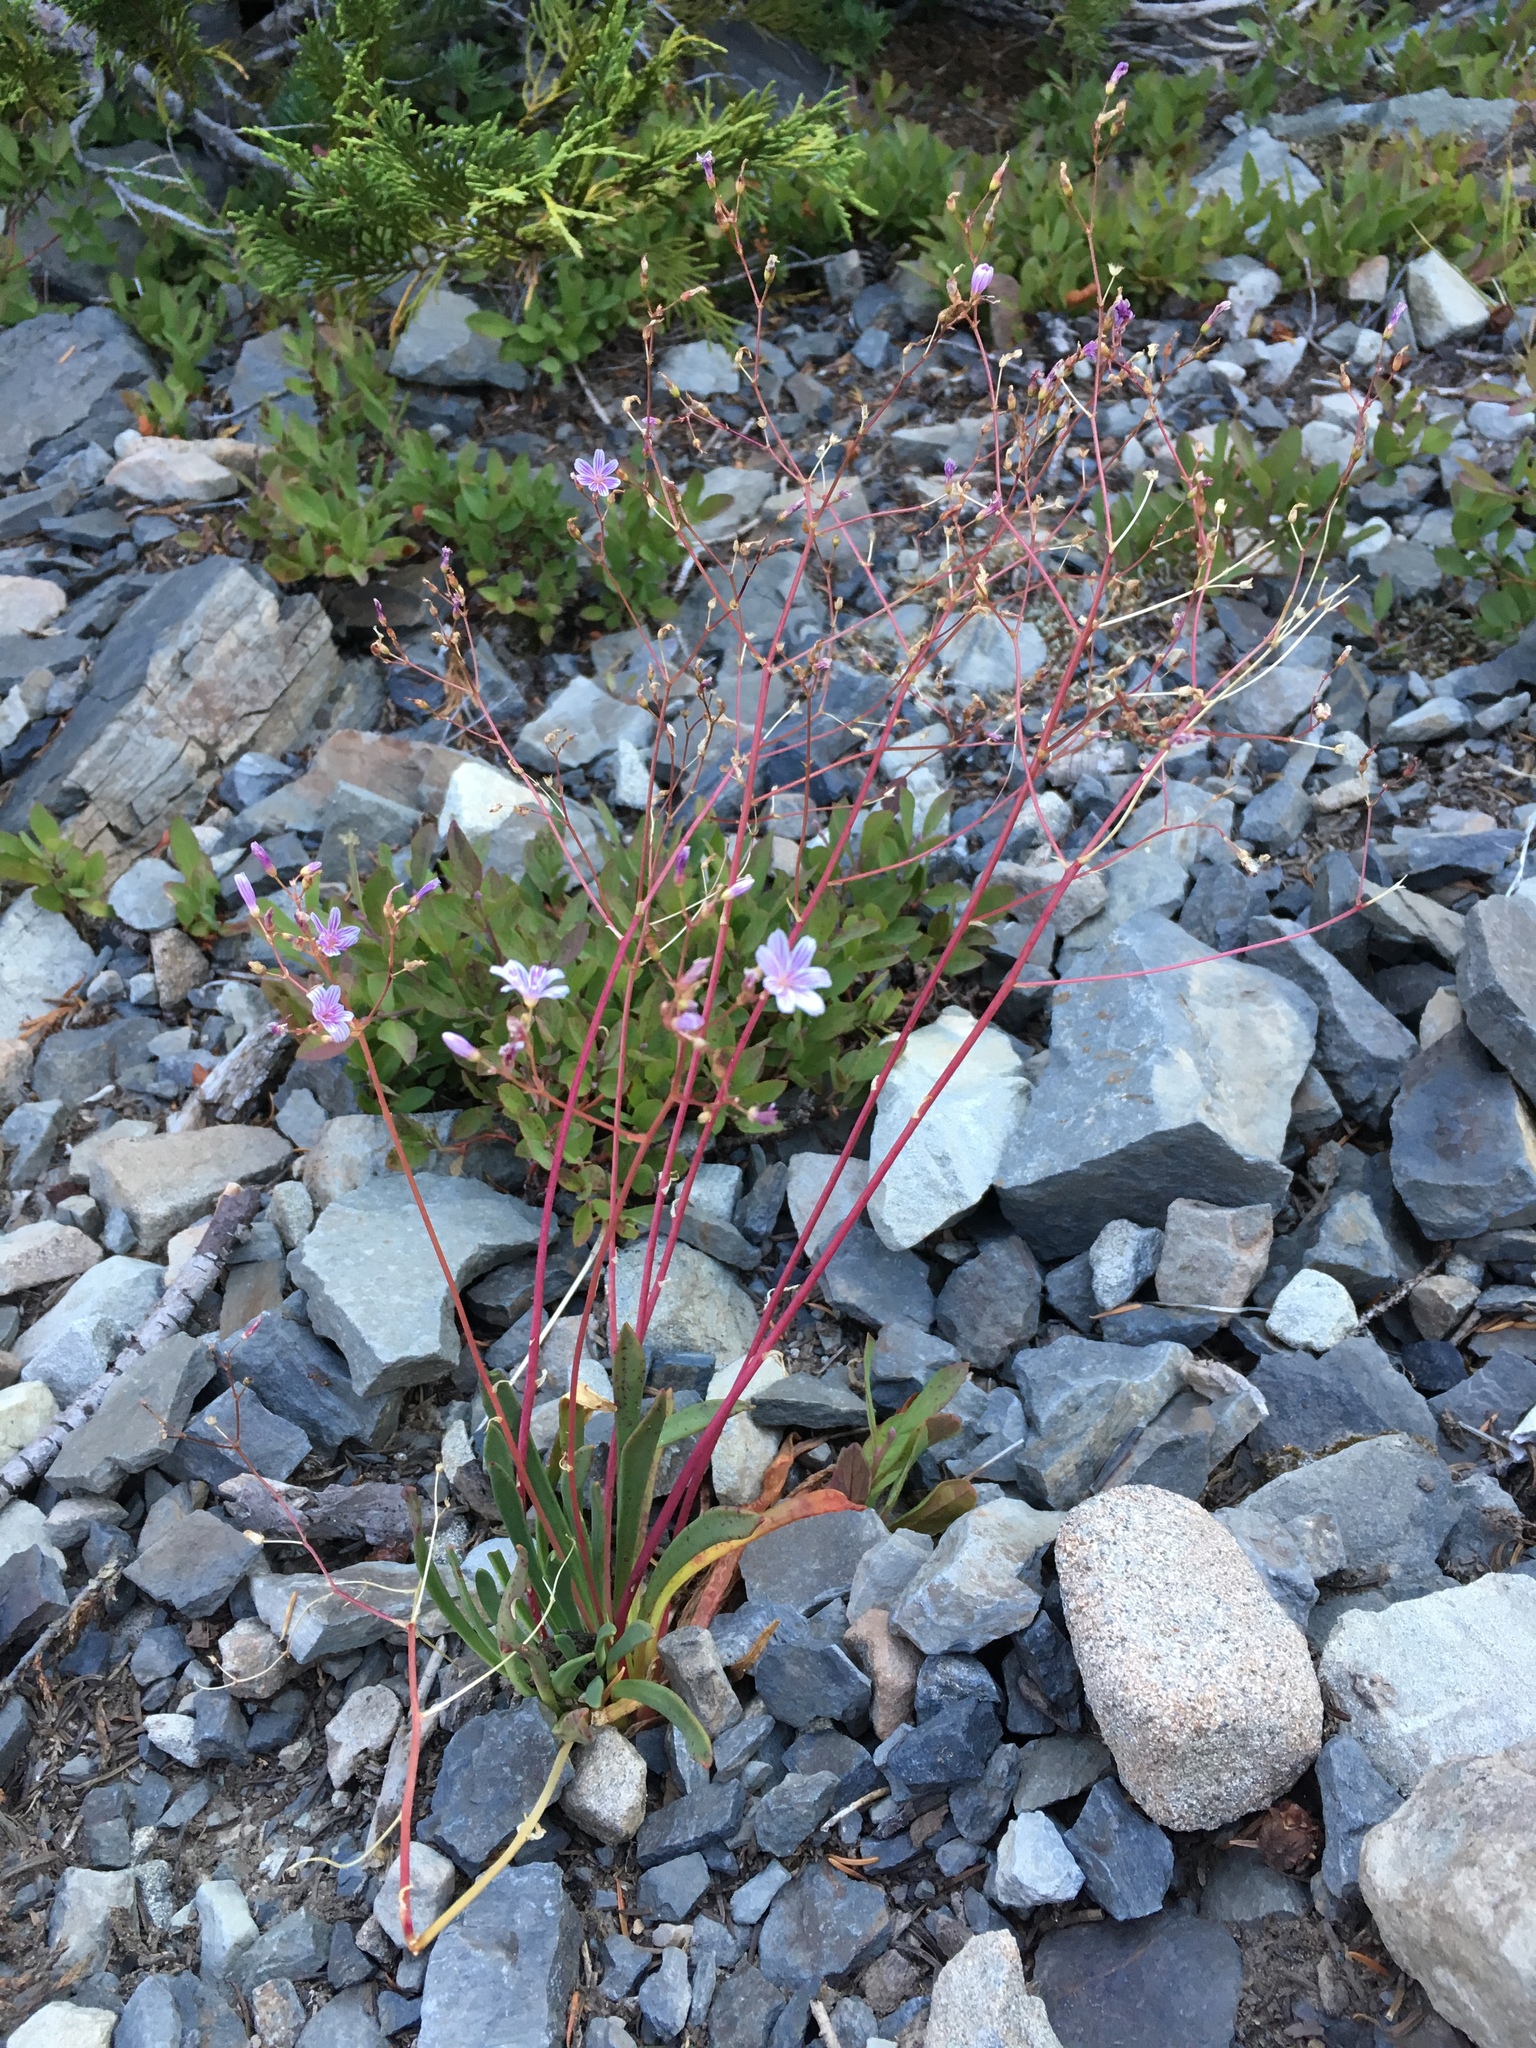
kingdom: Plantae
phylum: Tracheophyta
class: Magnoliopsida
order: Caryophyllales
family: Montiaceae
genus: Lewisia
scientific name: Lewisia columbiana
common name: Columbia lewisia
